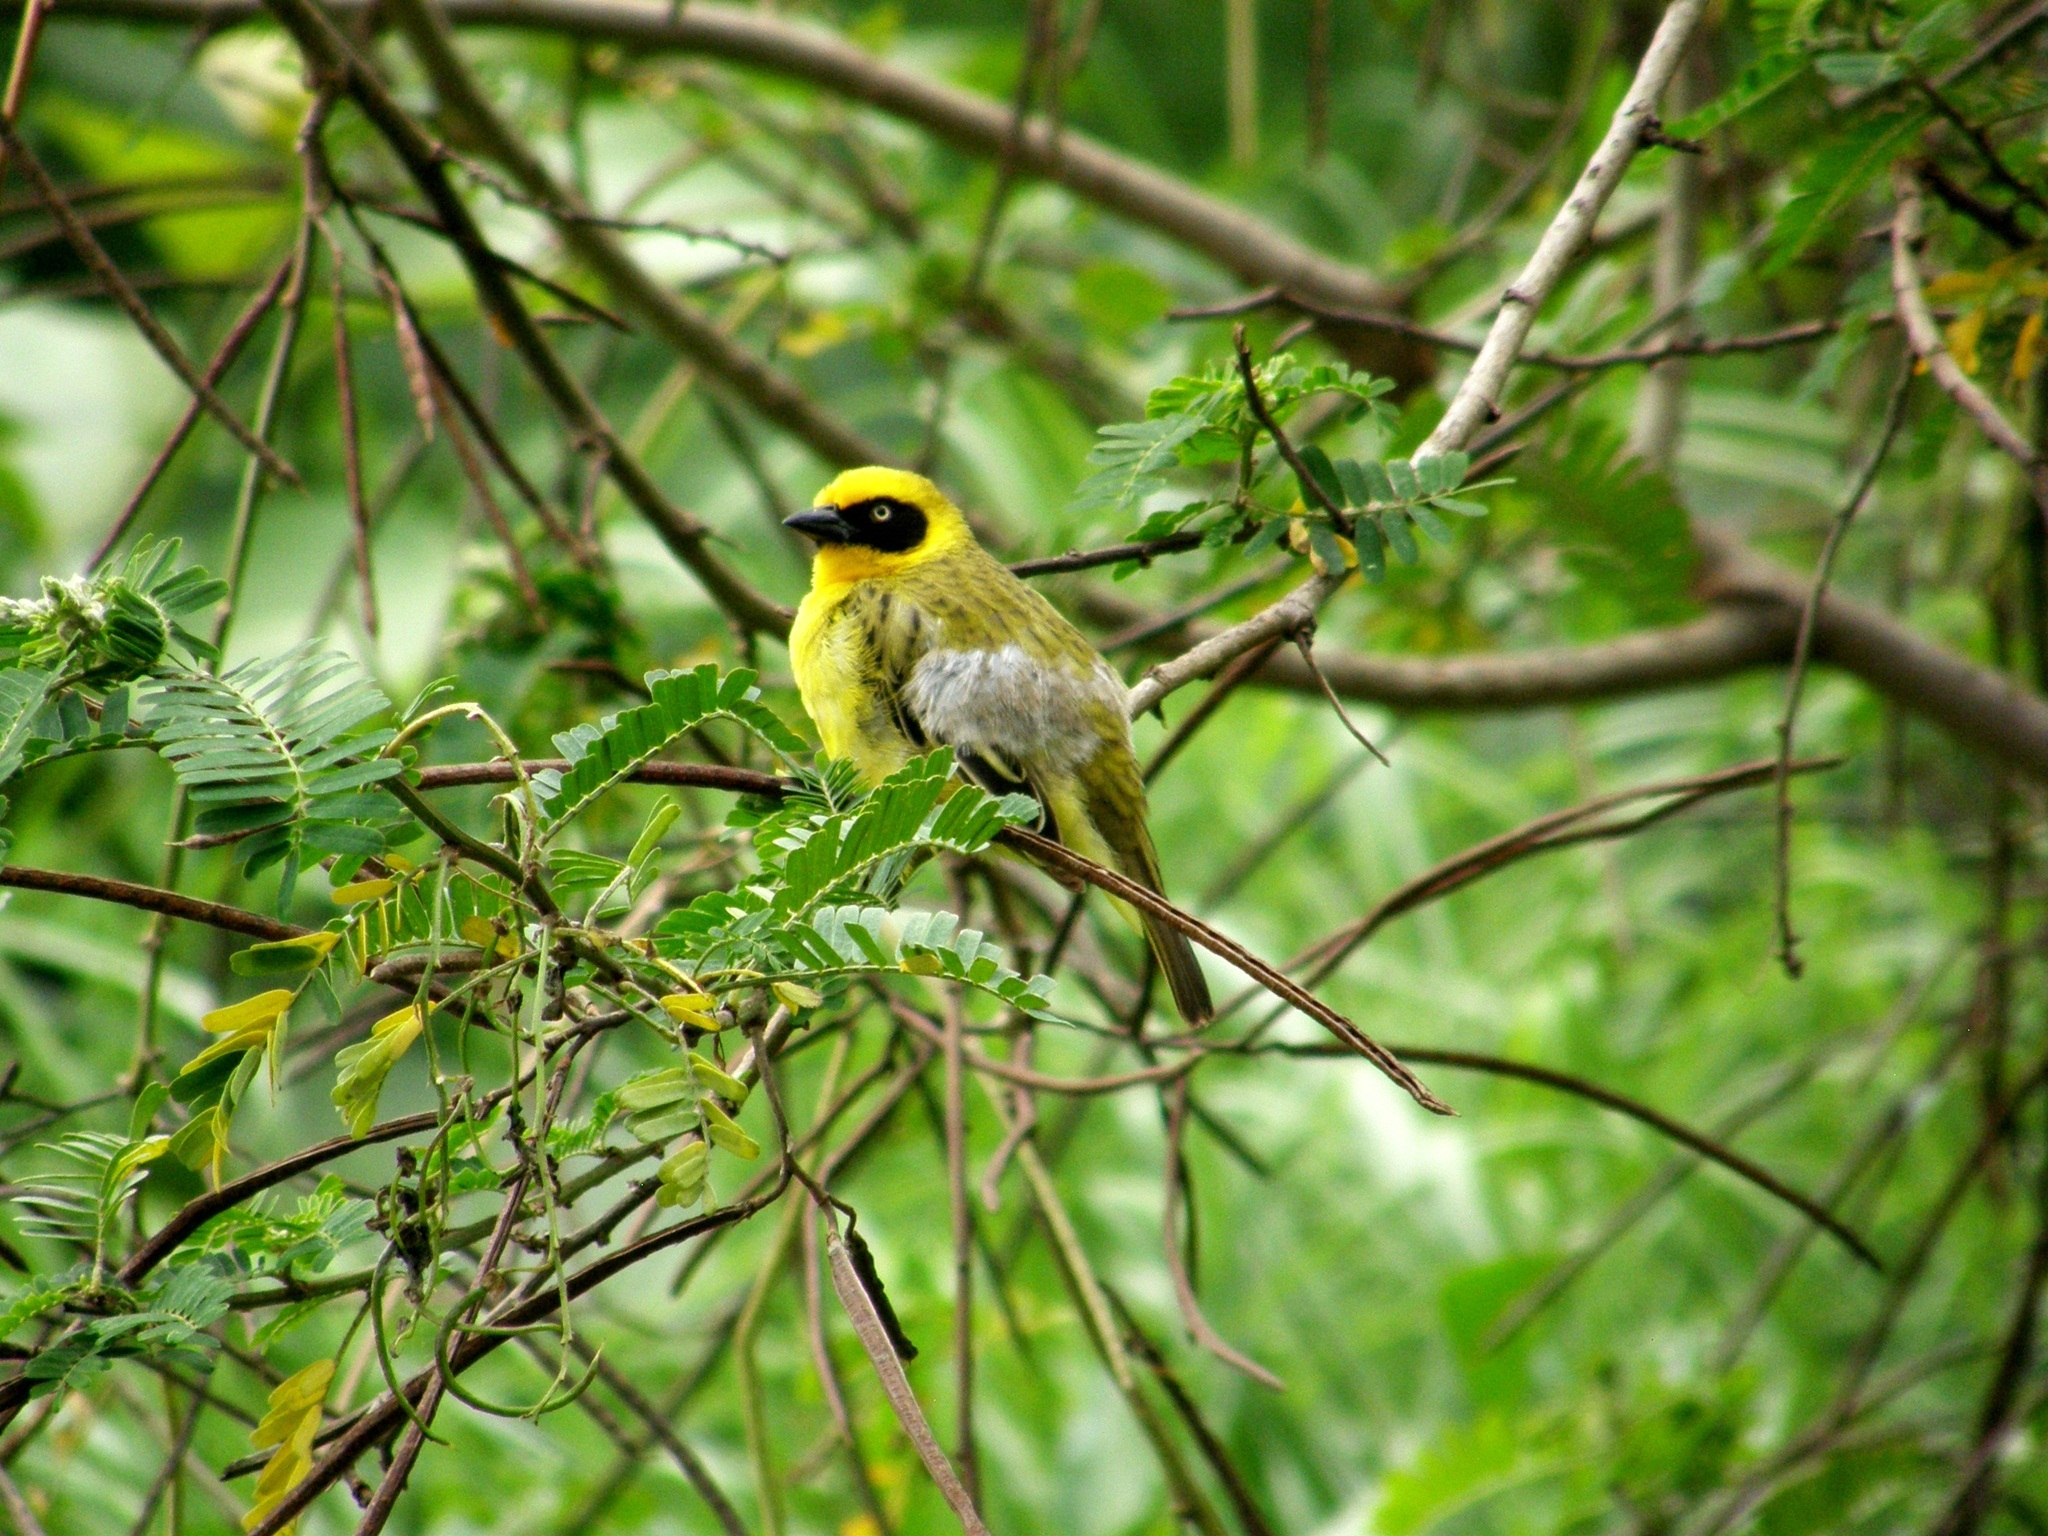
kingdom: Animalia
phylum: Chordata
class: Aves
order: Passeriformes
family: Ploceidae
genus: Ploceus
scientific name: Ploceus baglafecht
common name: Baglafecht weaver
